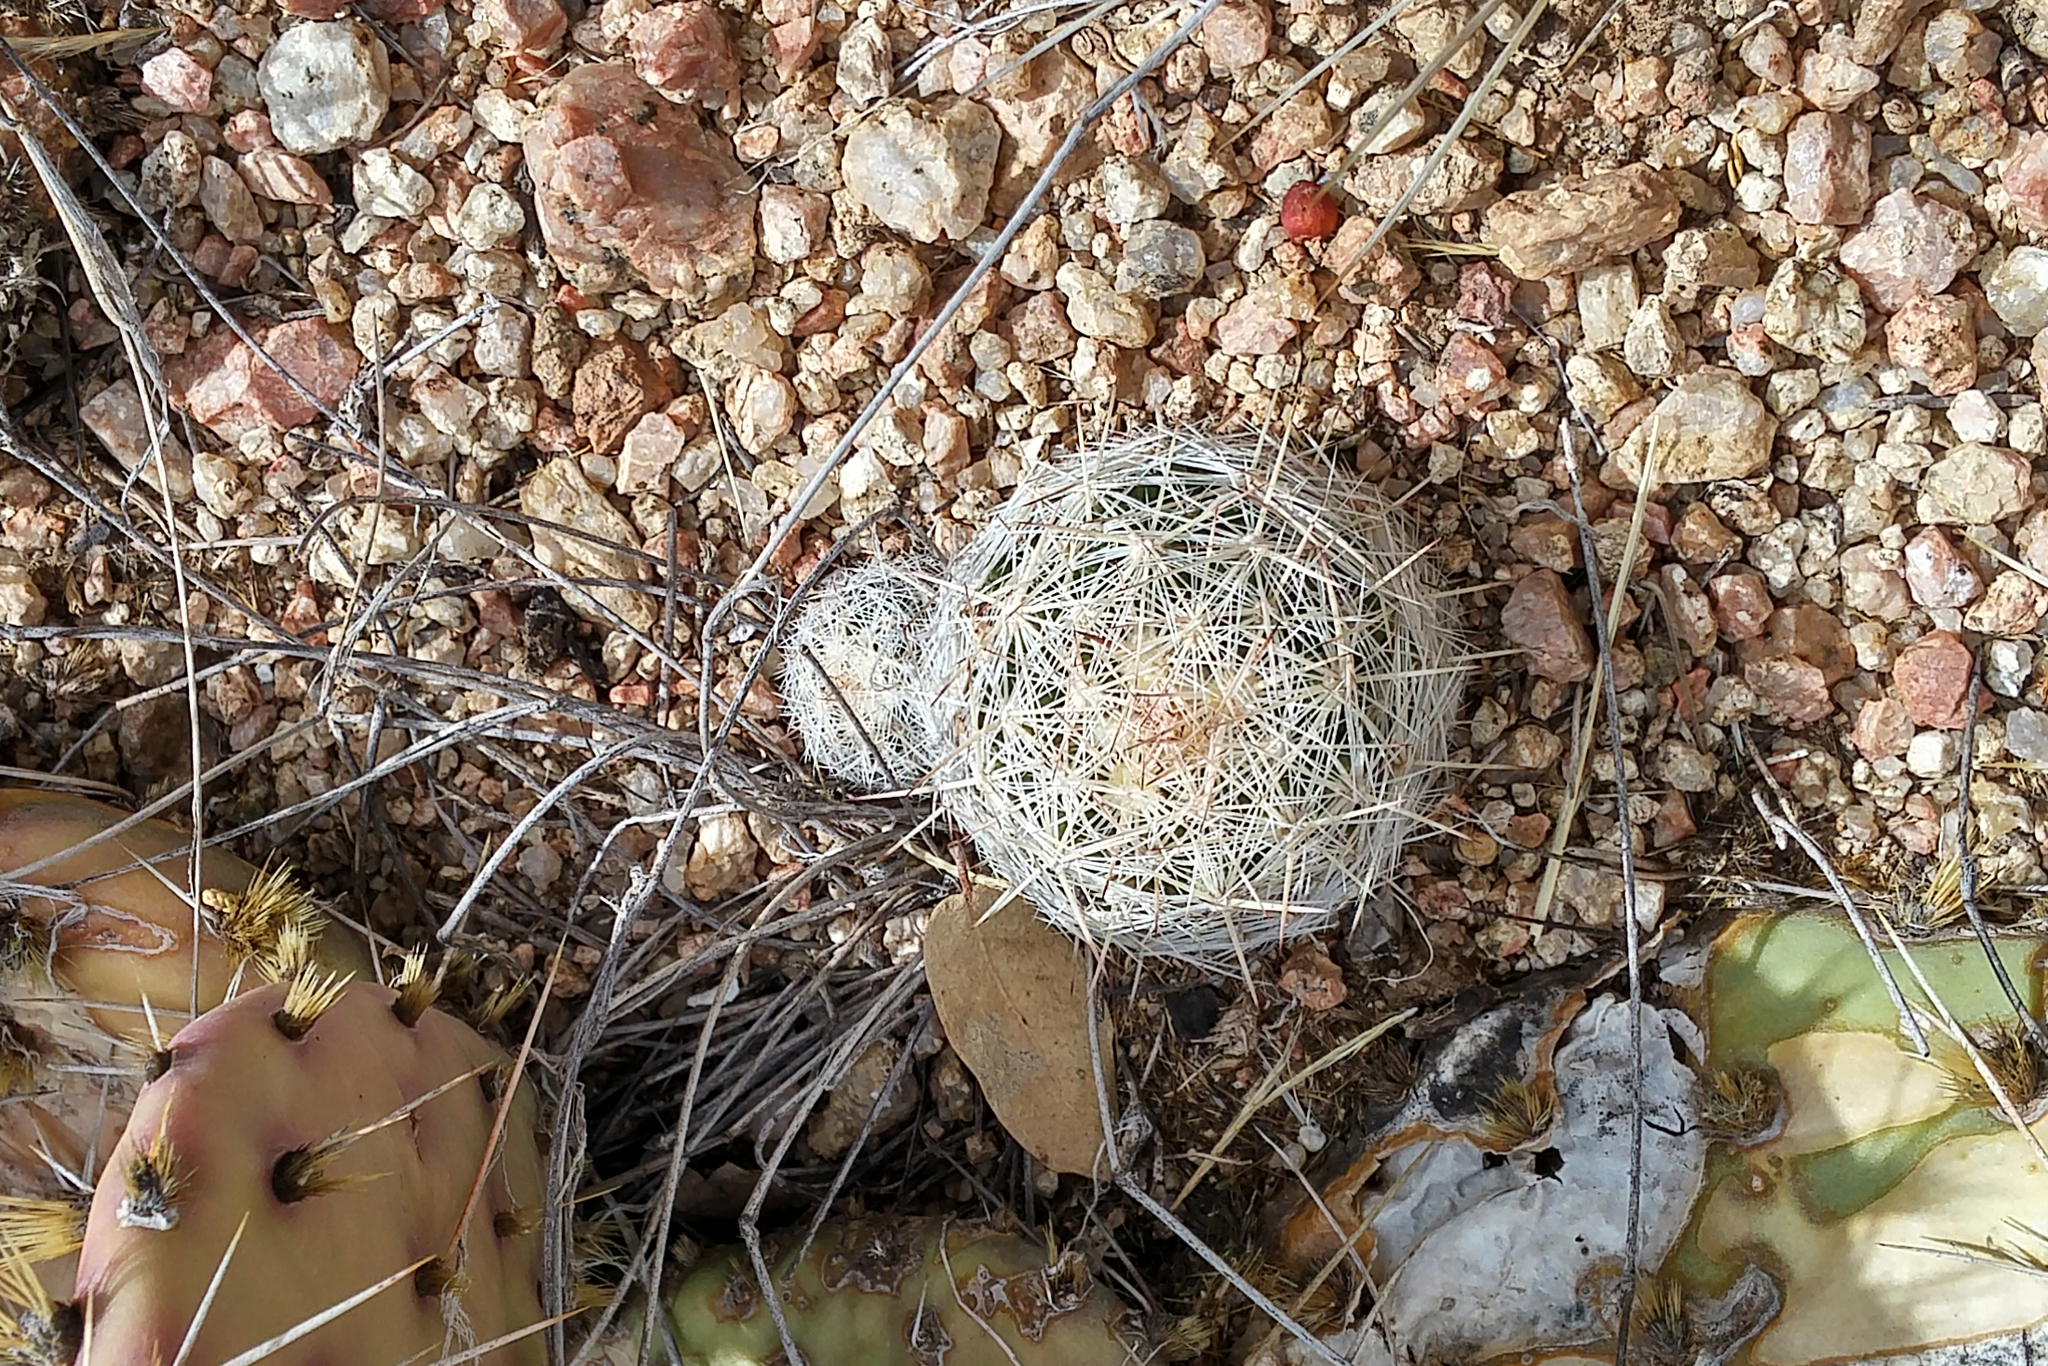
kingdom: Plantae
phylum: Tracheophyta
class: Magnoliopsida
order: Caryophyllales
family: Cactaceae
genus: Pelecyphora
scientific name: Pelecyphora vivipara
